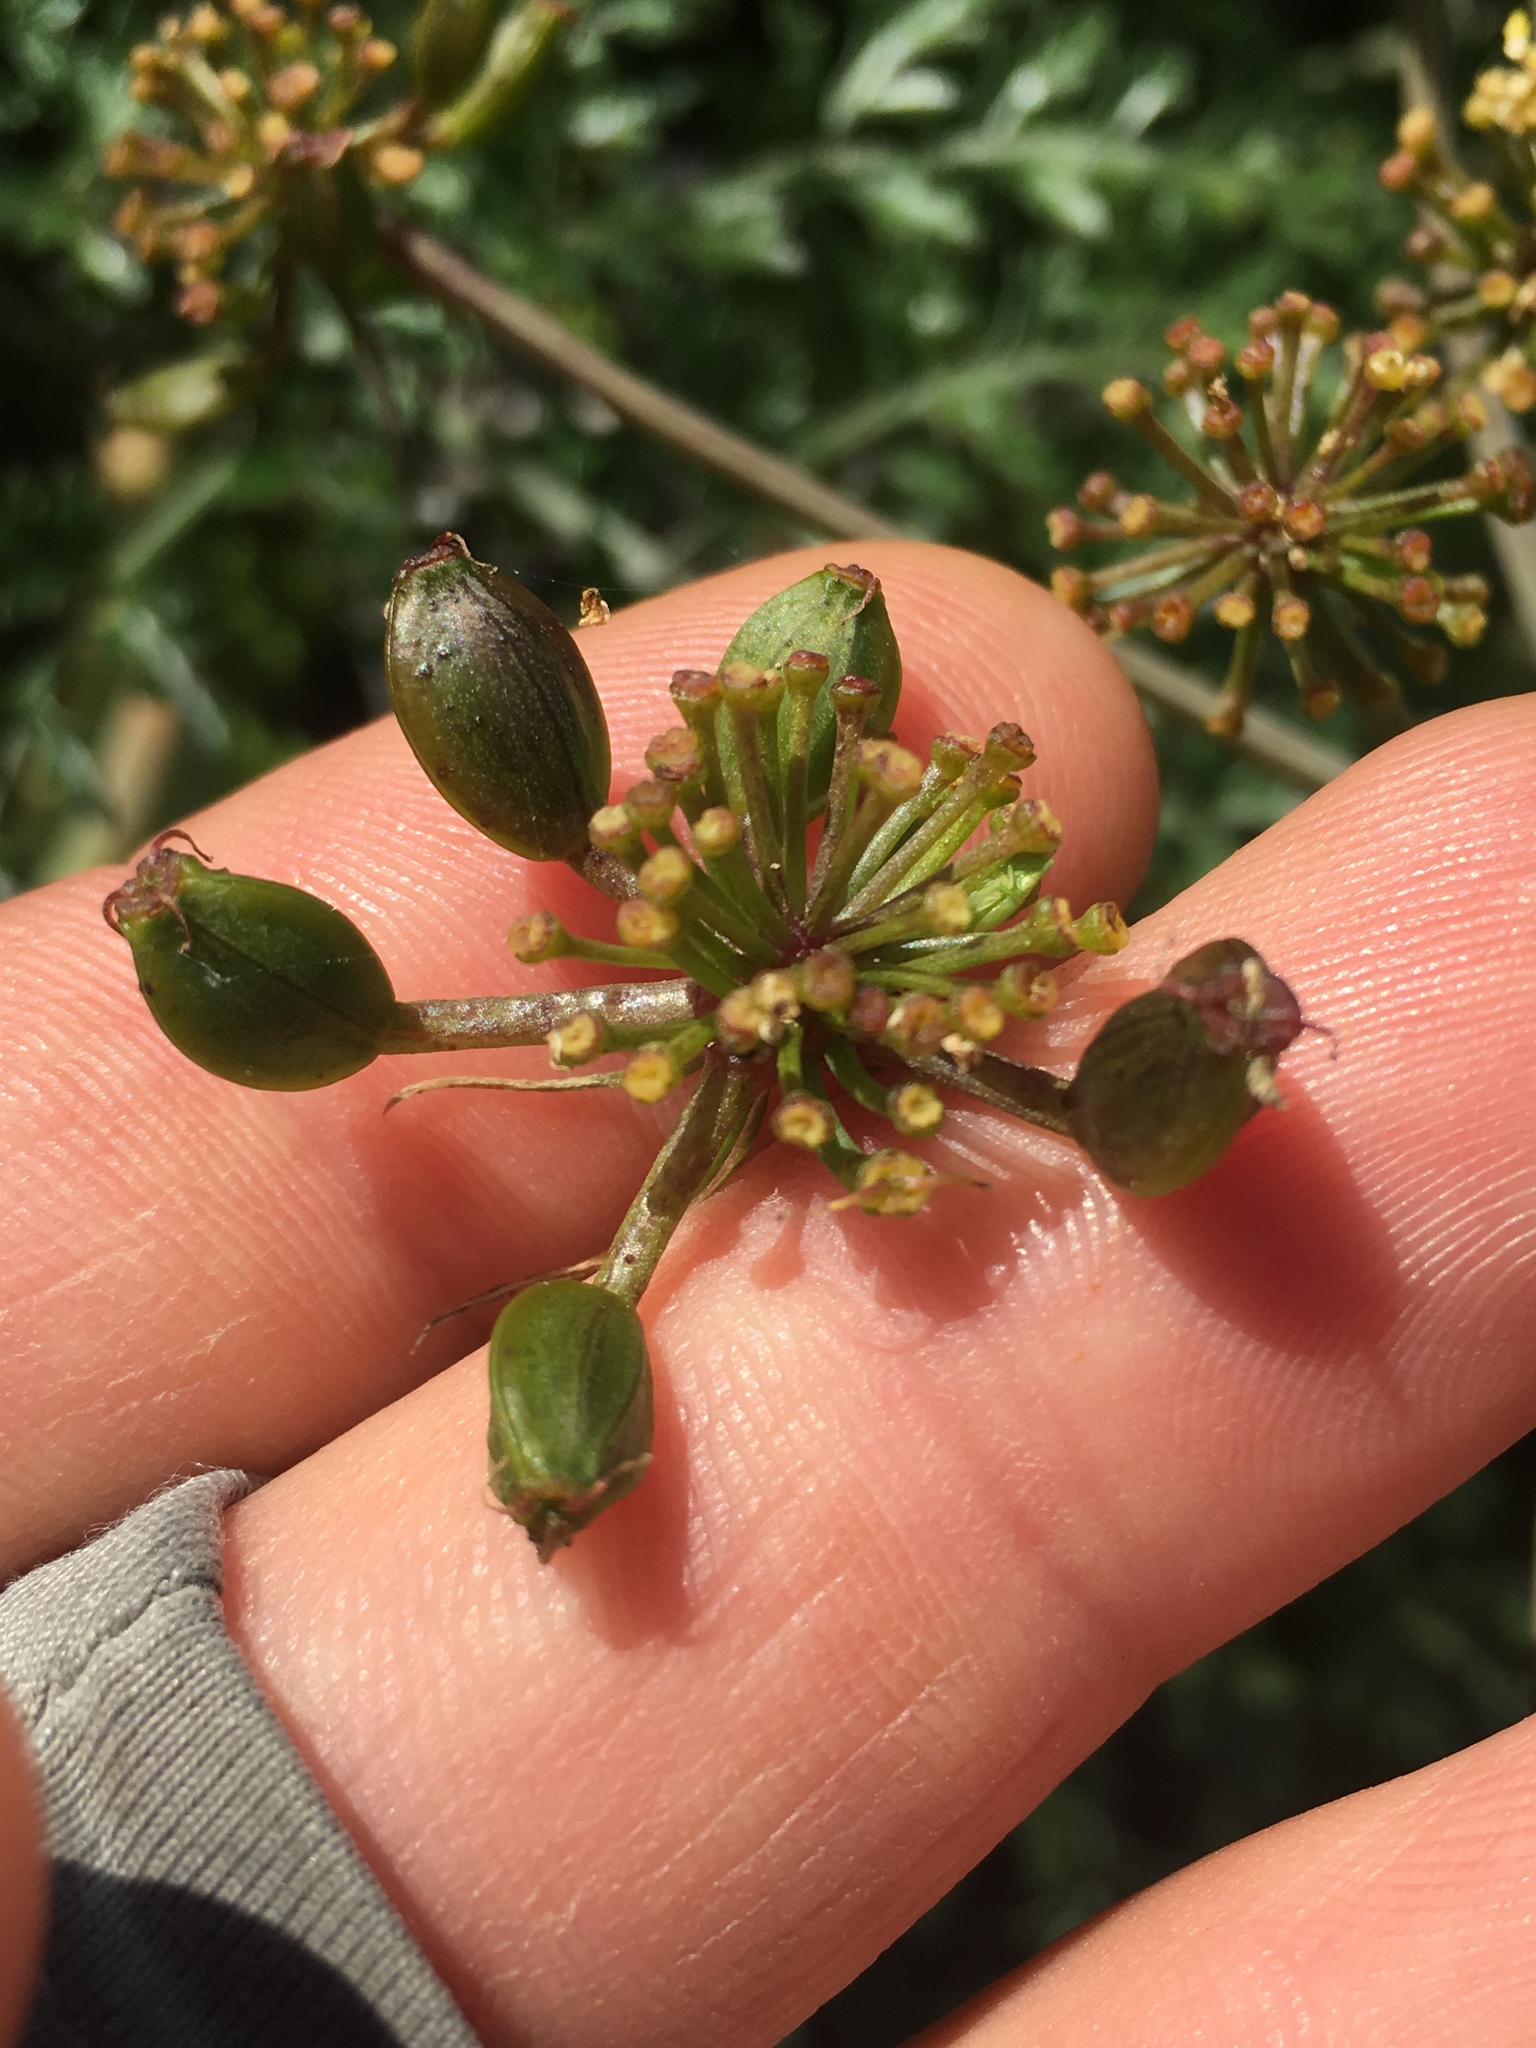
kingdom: Plantae
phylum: Tracheophyta
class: Magnoliopsida
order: Apiales
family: Apiaceae
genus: Lomatium
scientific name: Lomatium insulare
